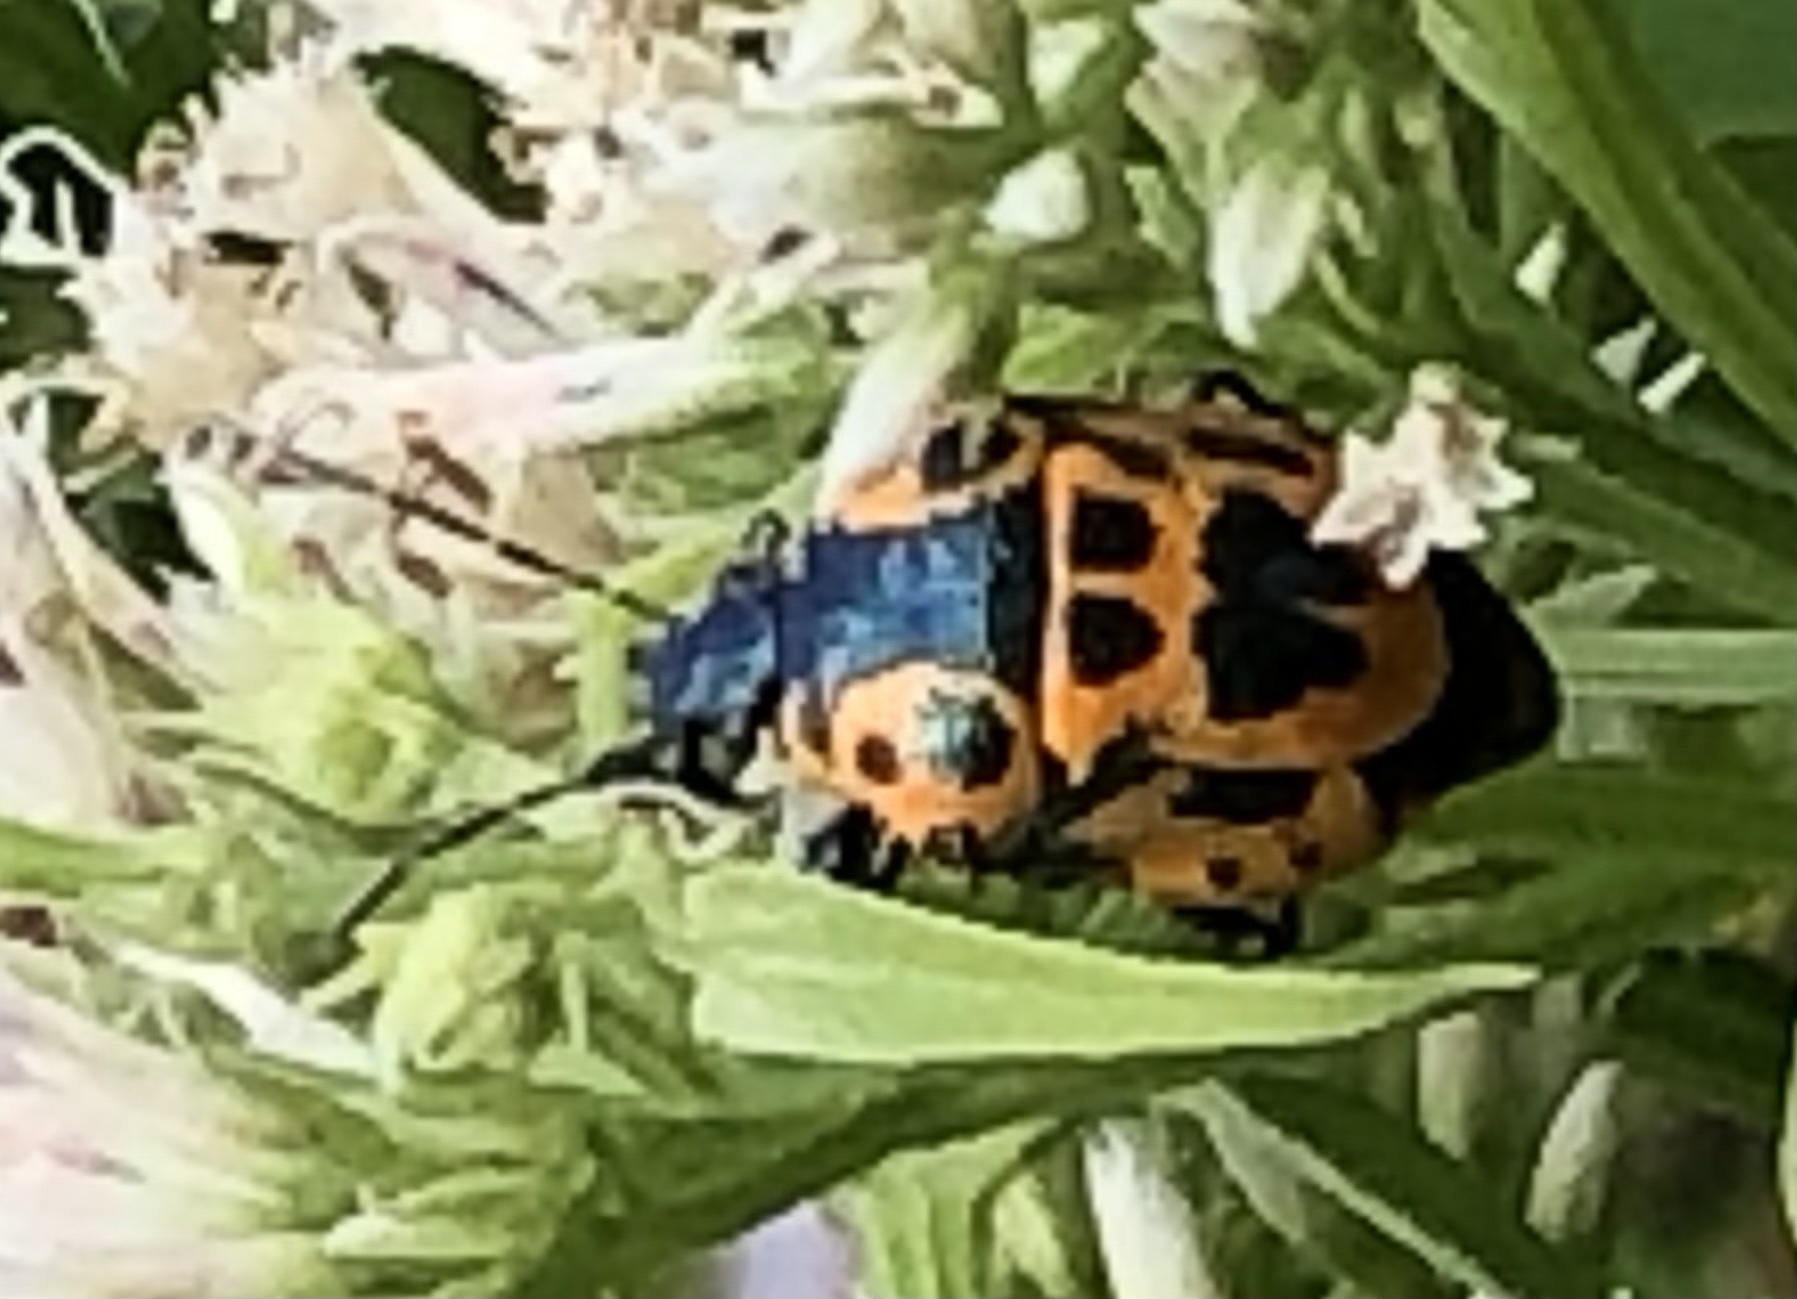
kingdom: Animalia
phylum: Arthropoda
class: Insecta
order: Hemiptera
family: Pentatomidae
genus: Stiretrus
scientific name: Stiretrus anchorago
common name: Anchor stink bug
